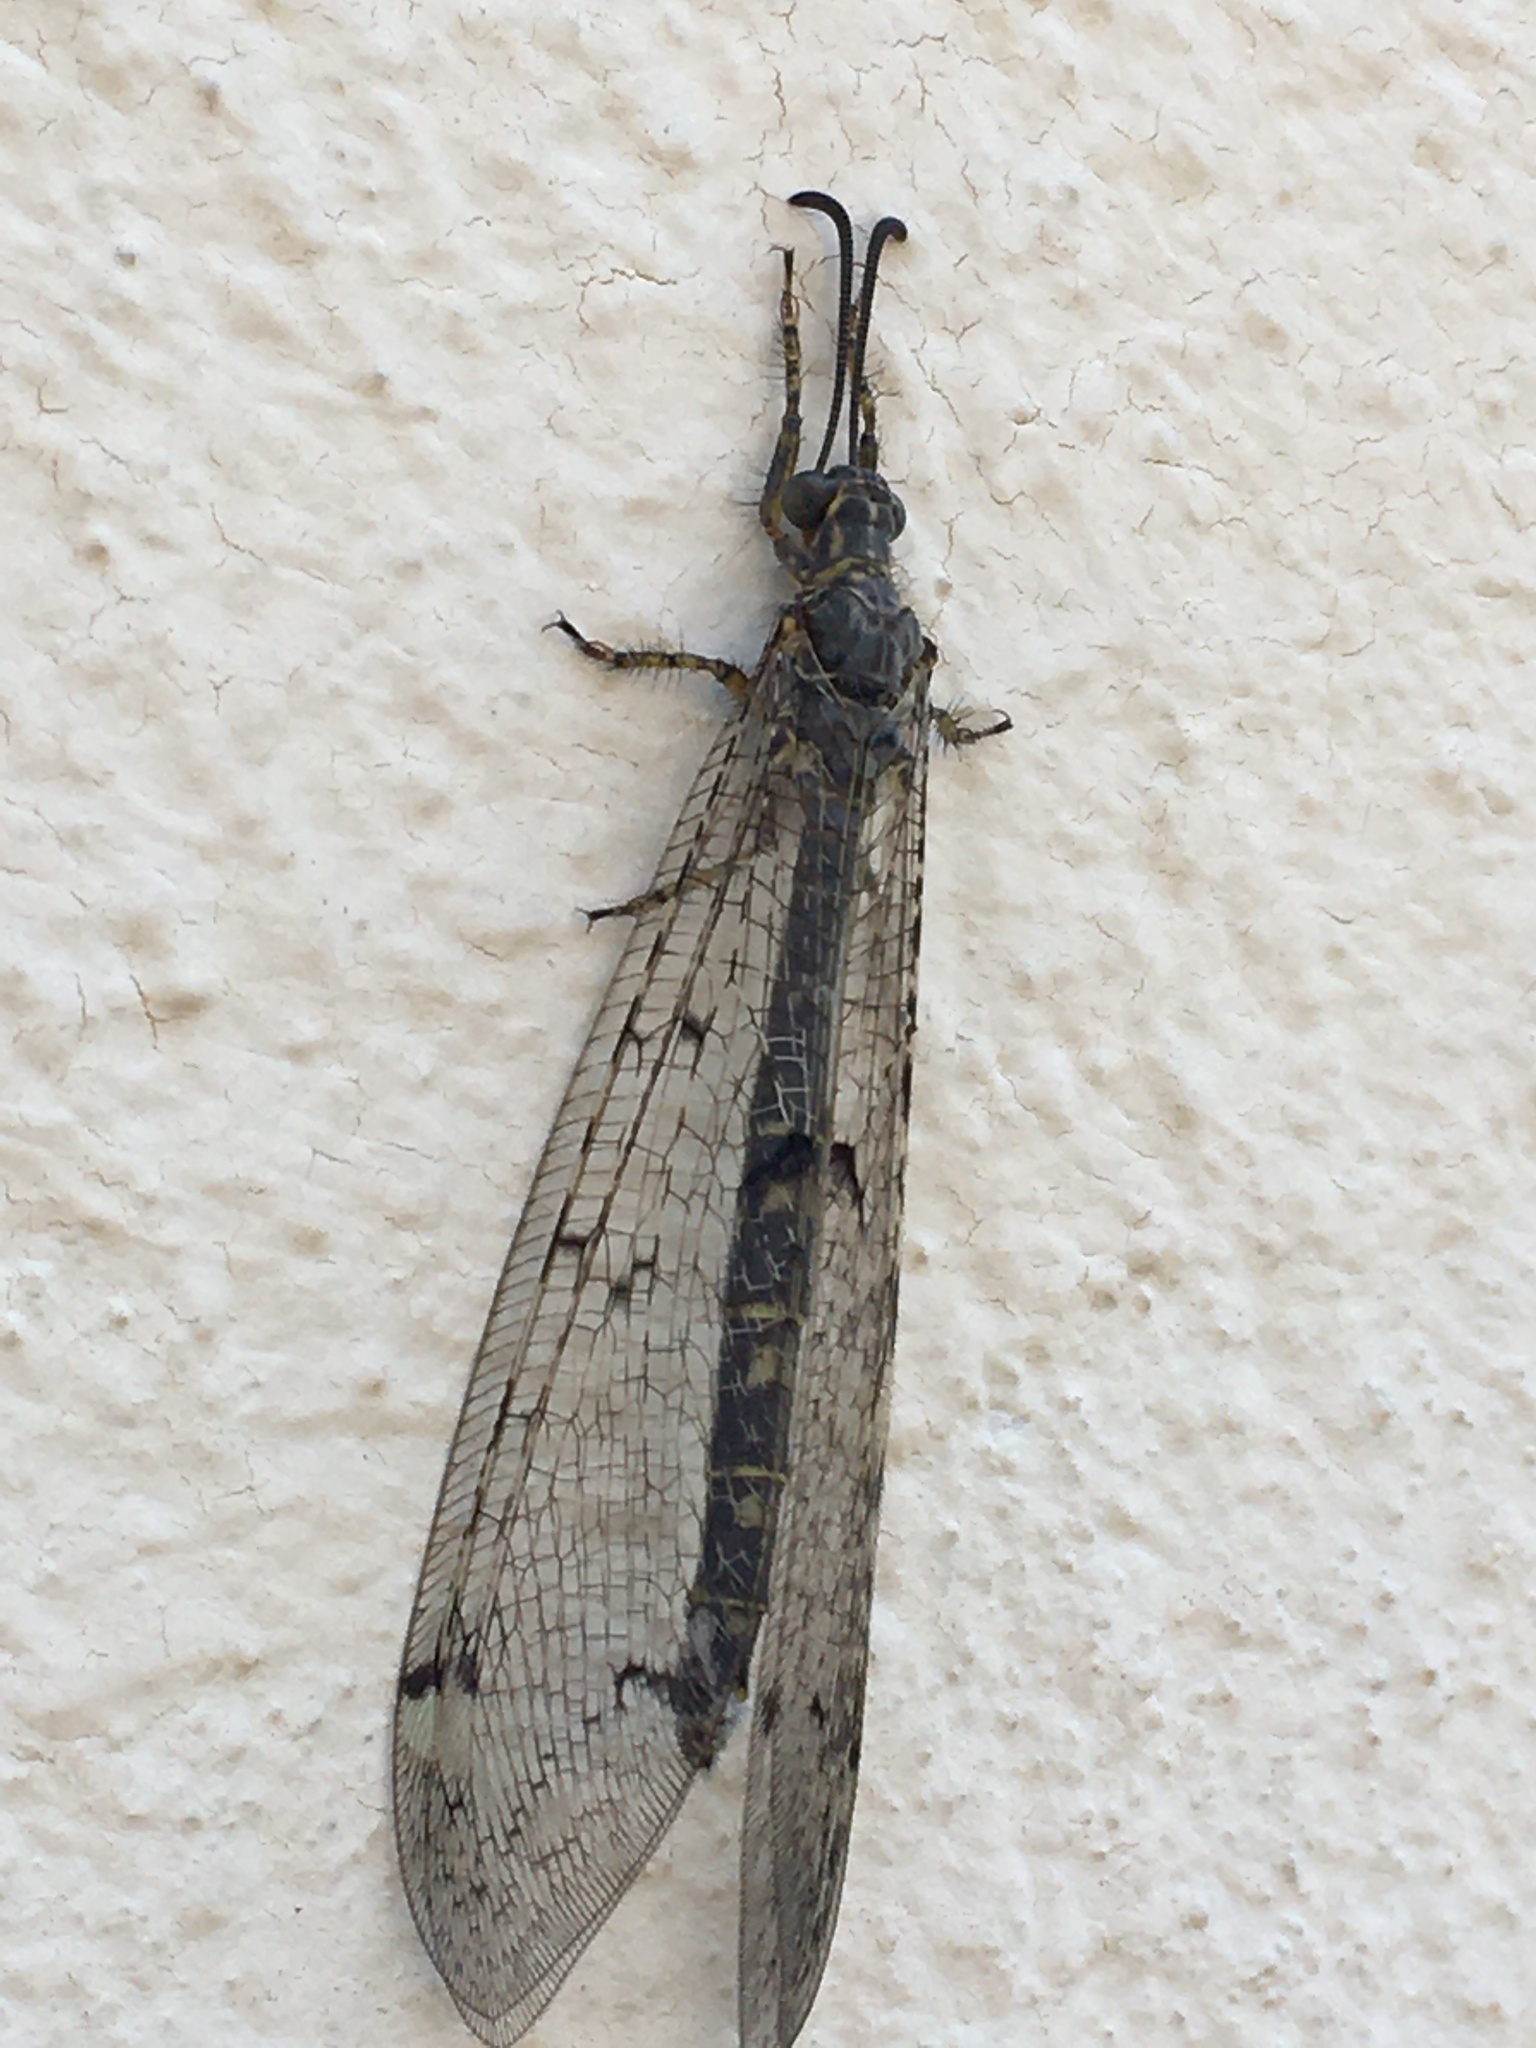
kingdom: Animalia
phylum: Arthropoda
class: Insecta
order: Neuroptera
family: Myrmeleontidae
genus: Distoleon
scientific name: Distoleon tetragrammicus
